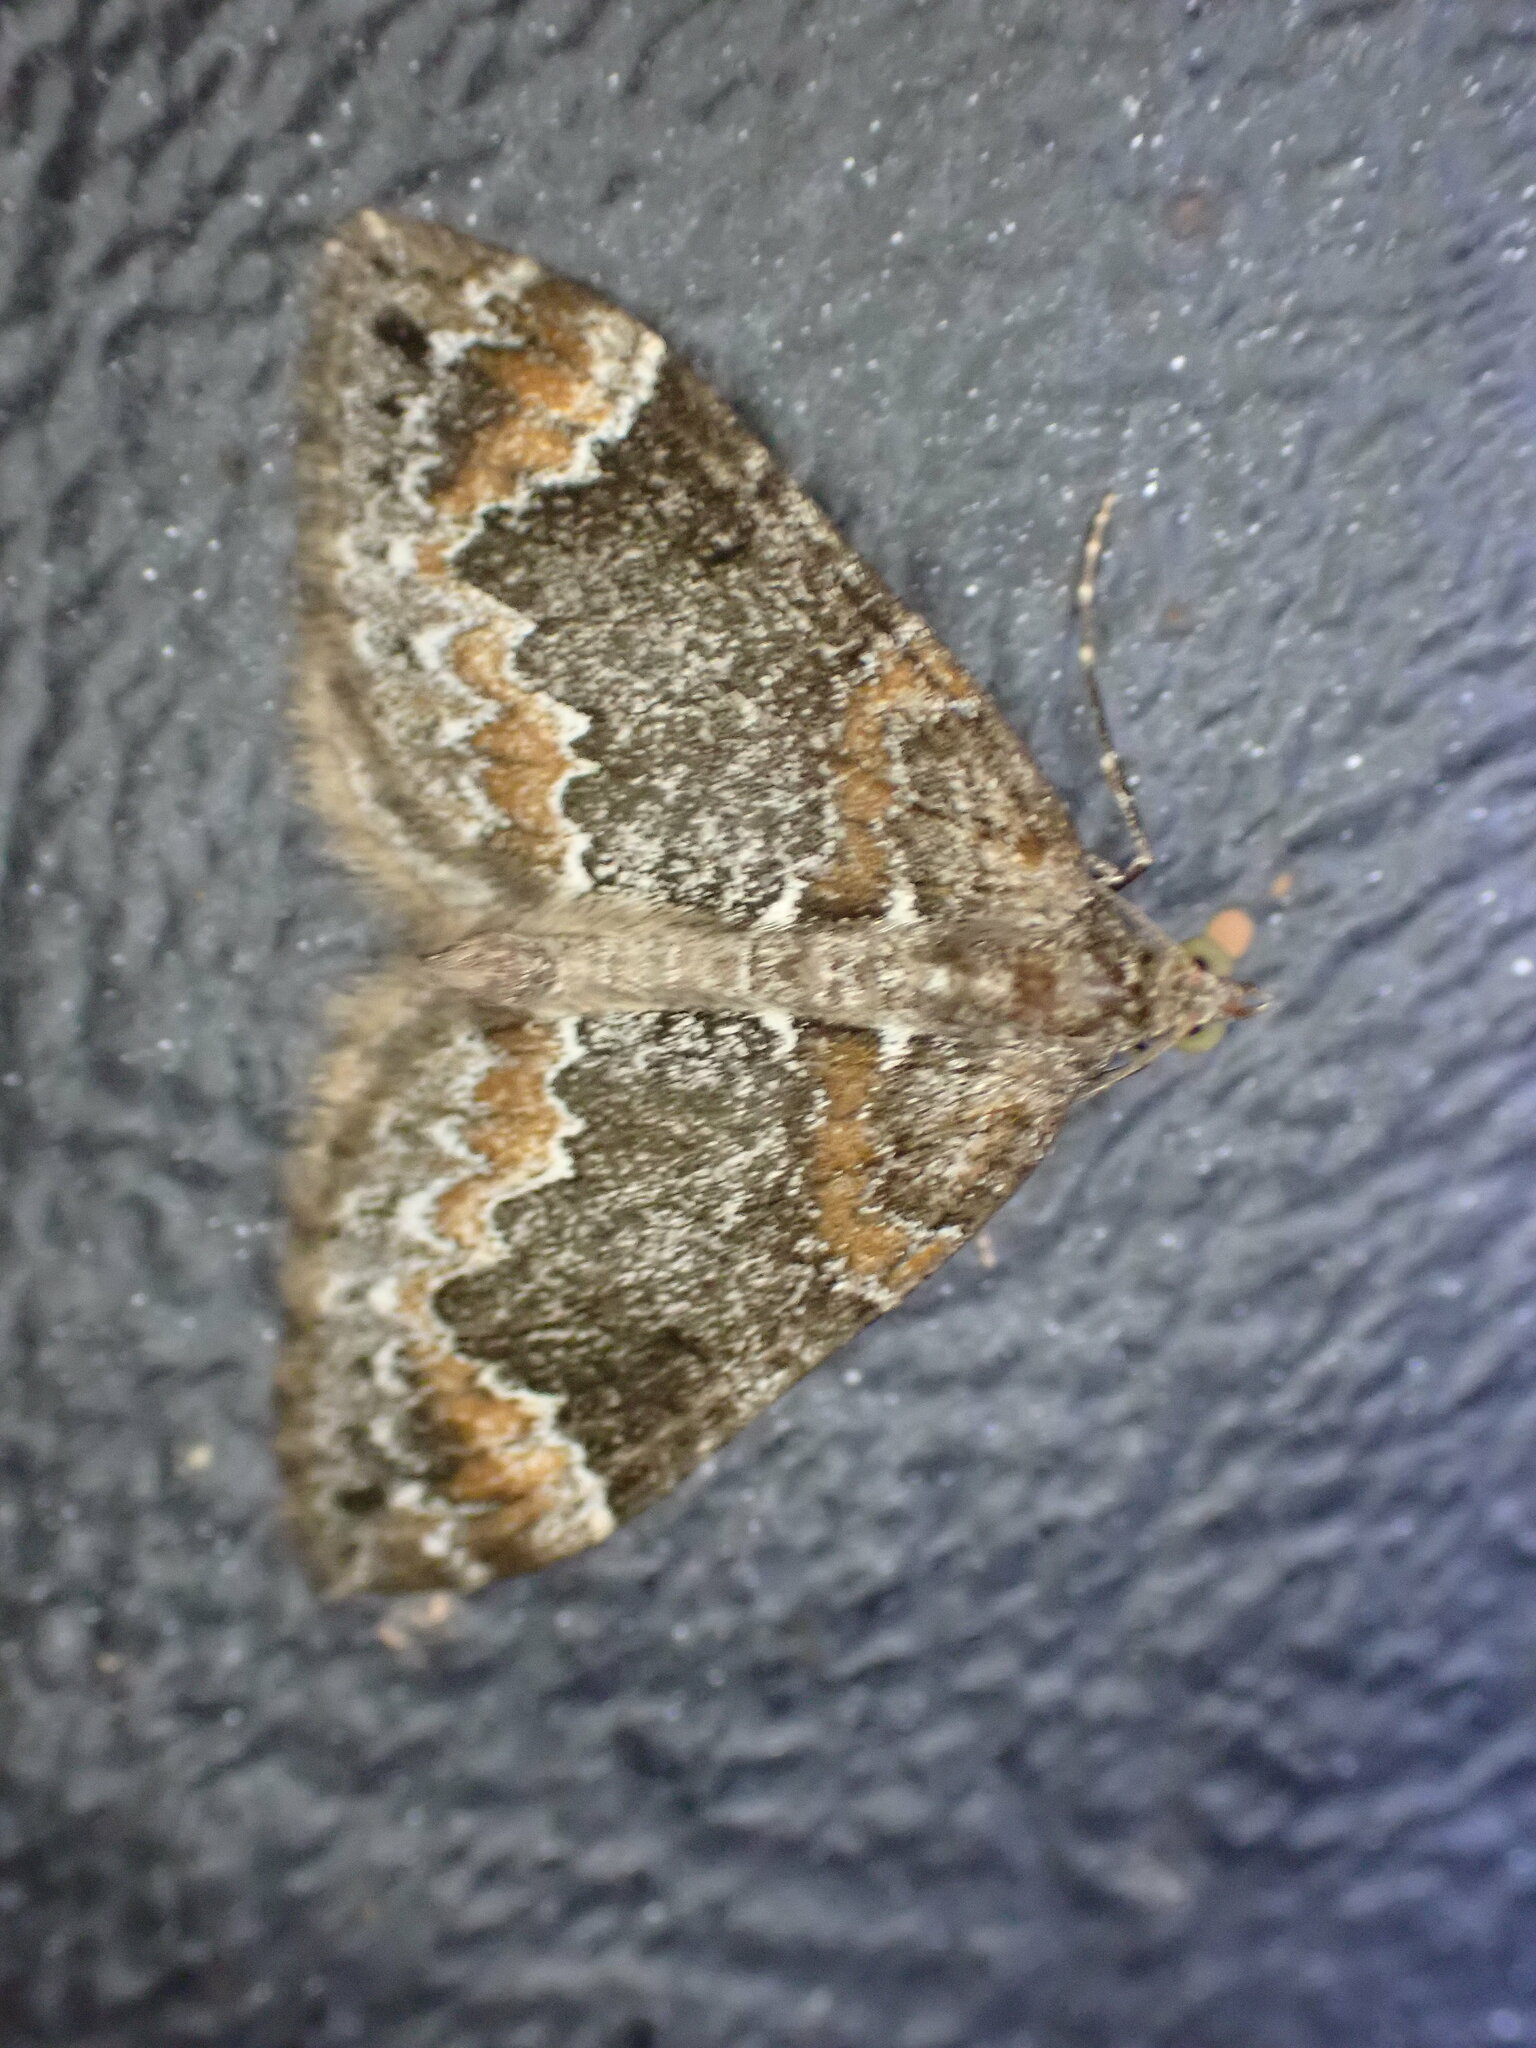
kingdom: Animalia
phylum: Arthropoda
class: Insecta
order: Lepidoptera
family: Geometridae
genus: Dysstroma
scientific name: Dysstroma truncata
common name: Common marbled carpet
